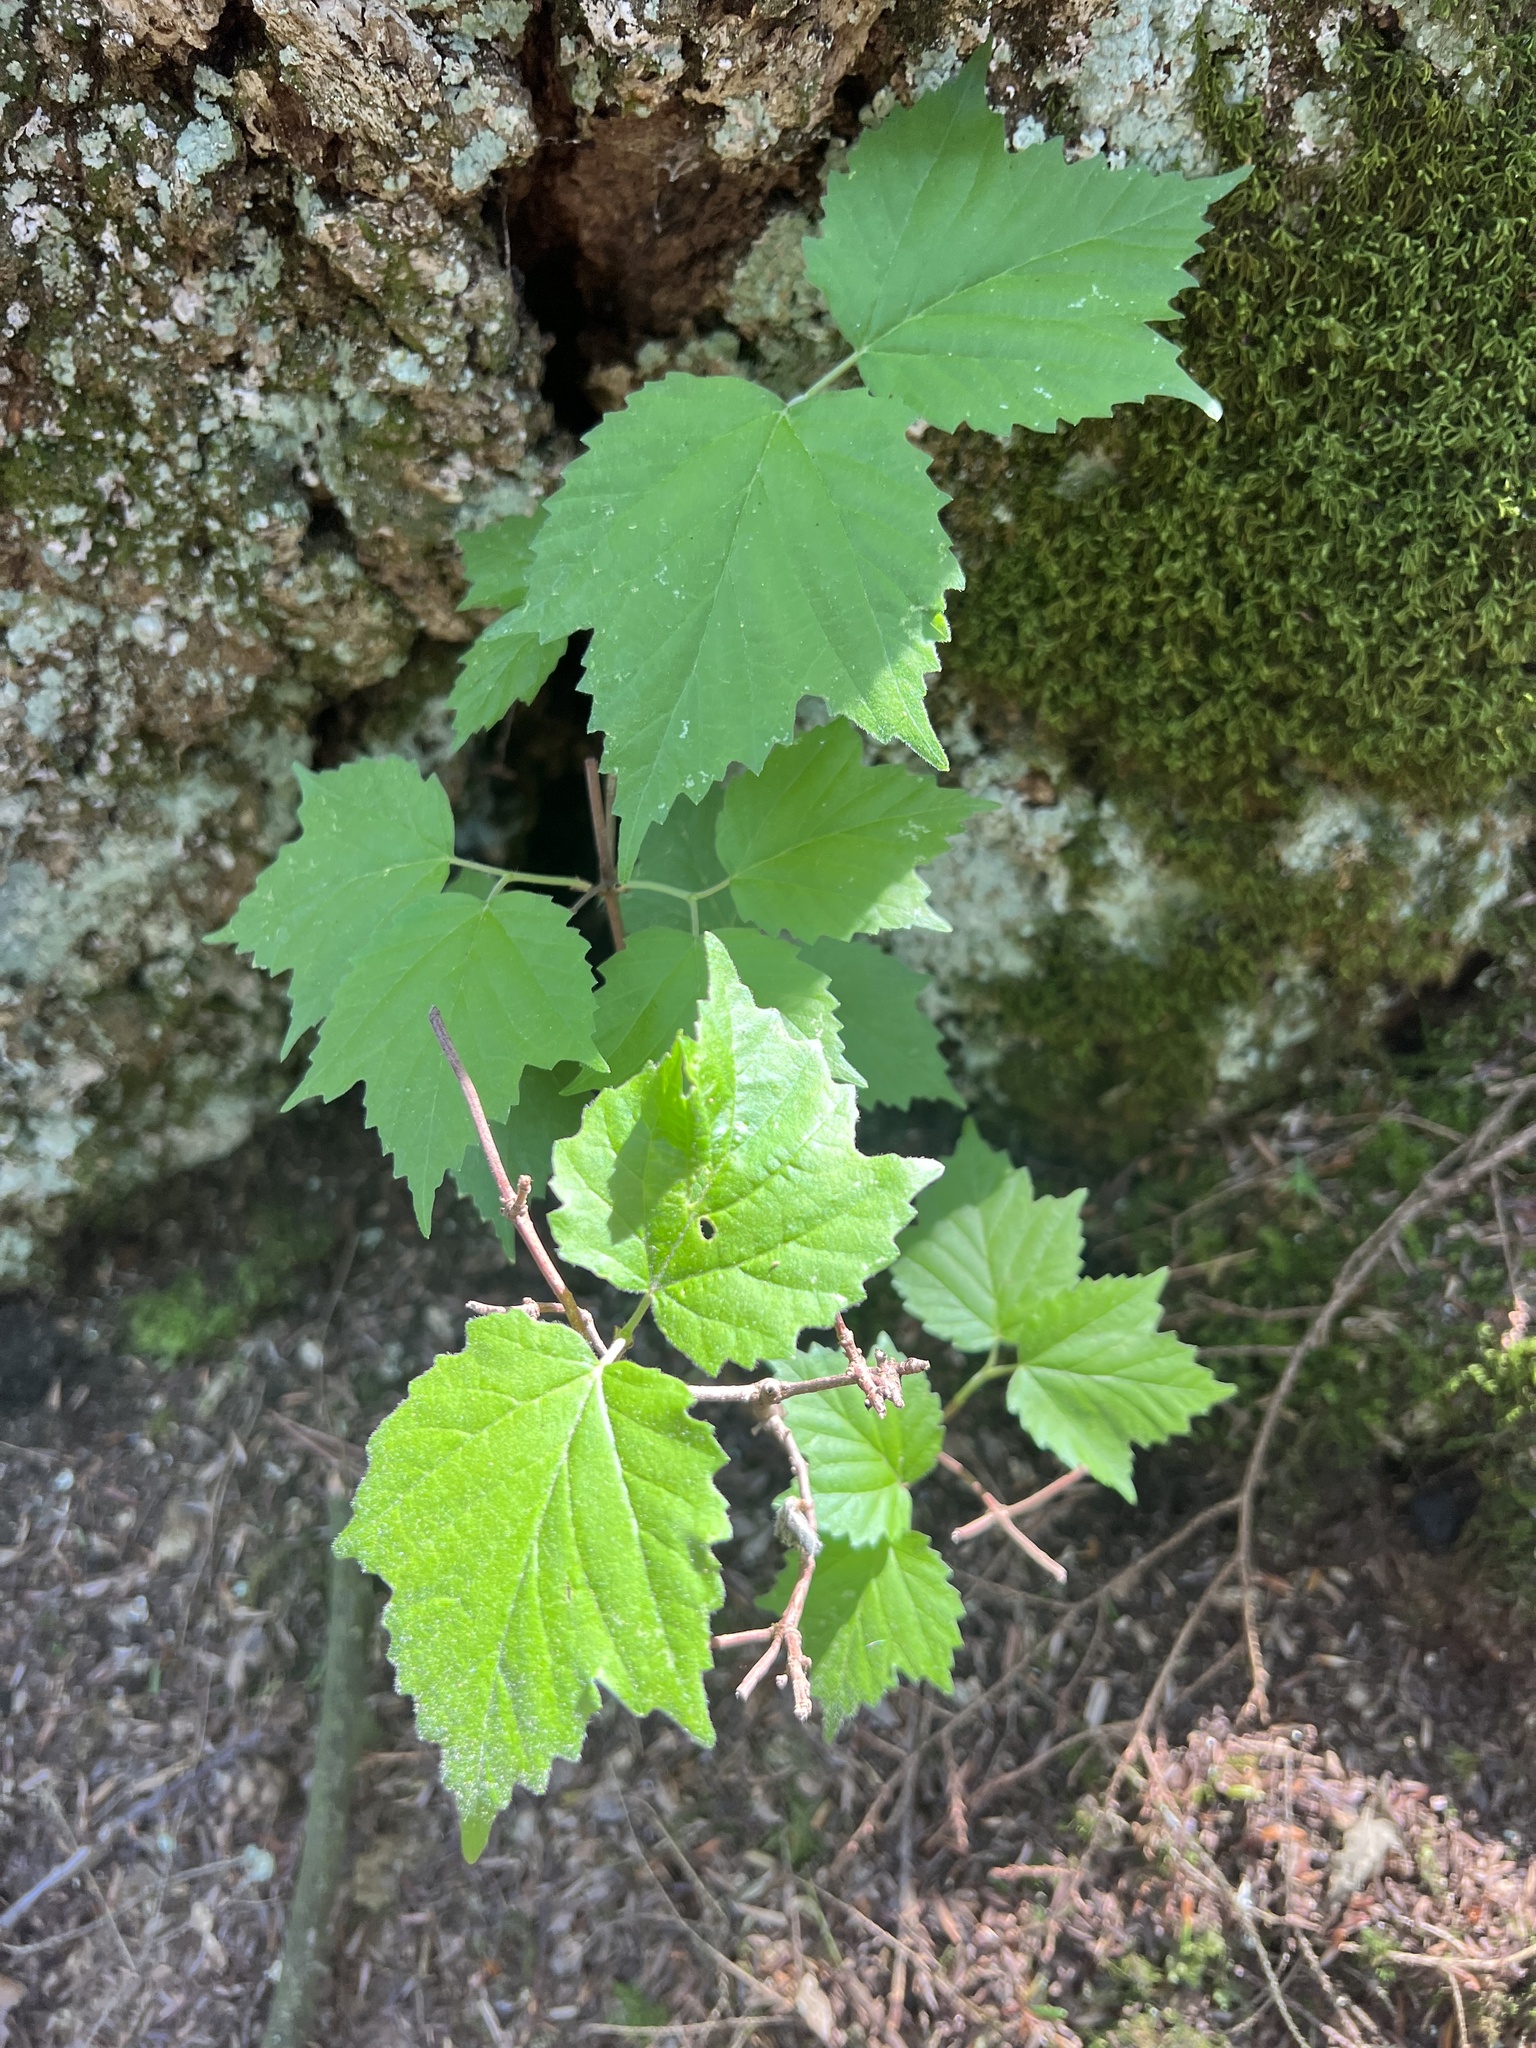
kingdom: Plantae
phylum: Tracheophyta
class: Magnoliopsida
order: Dipsacales
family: Viburnaceae
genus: Viburnum
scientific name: Viburnum acerifolium
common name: Dockmackie
